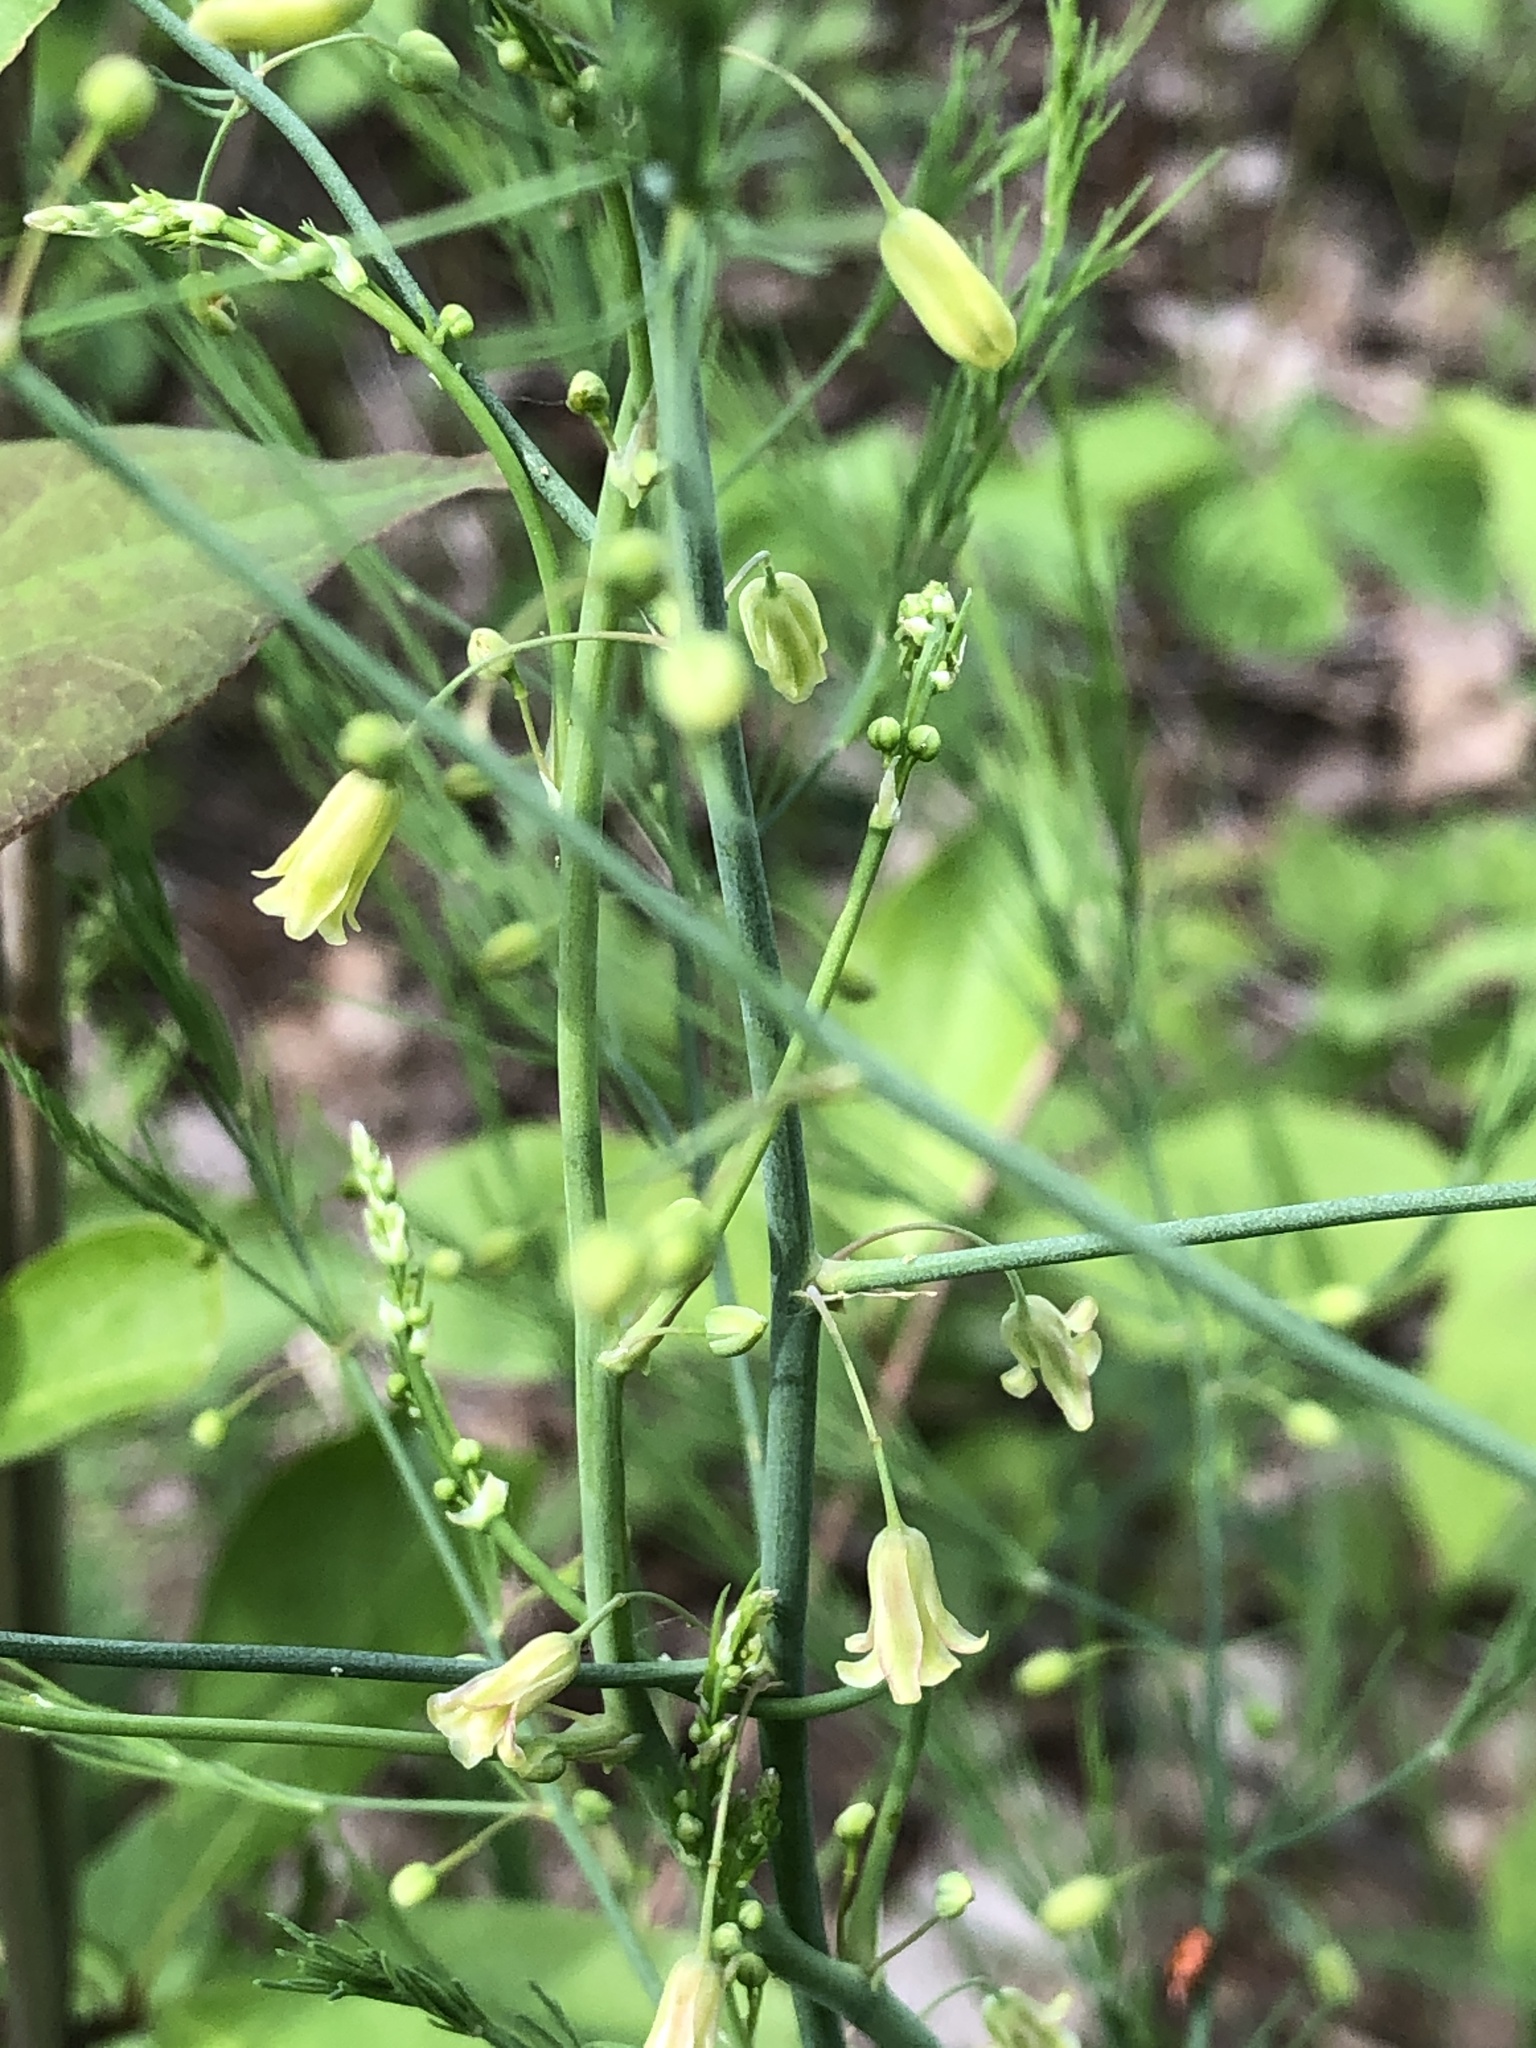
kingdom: Plantae
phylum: Tracheophyta
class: Liliopsida
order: Asparagales
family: Asparagaceae
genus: Asparagus
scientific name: Asparagus officinalis
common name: Garden asparagus
